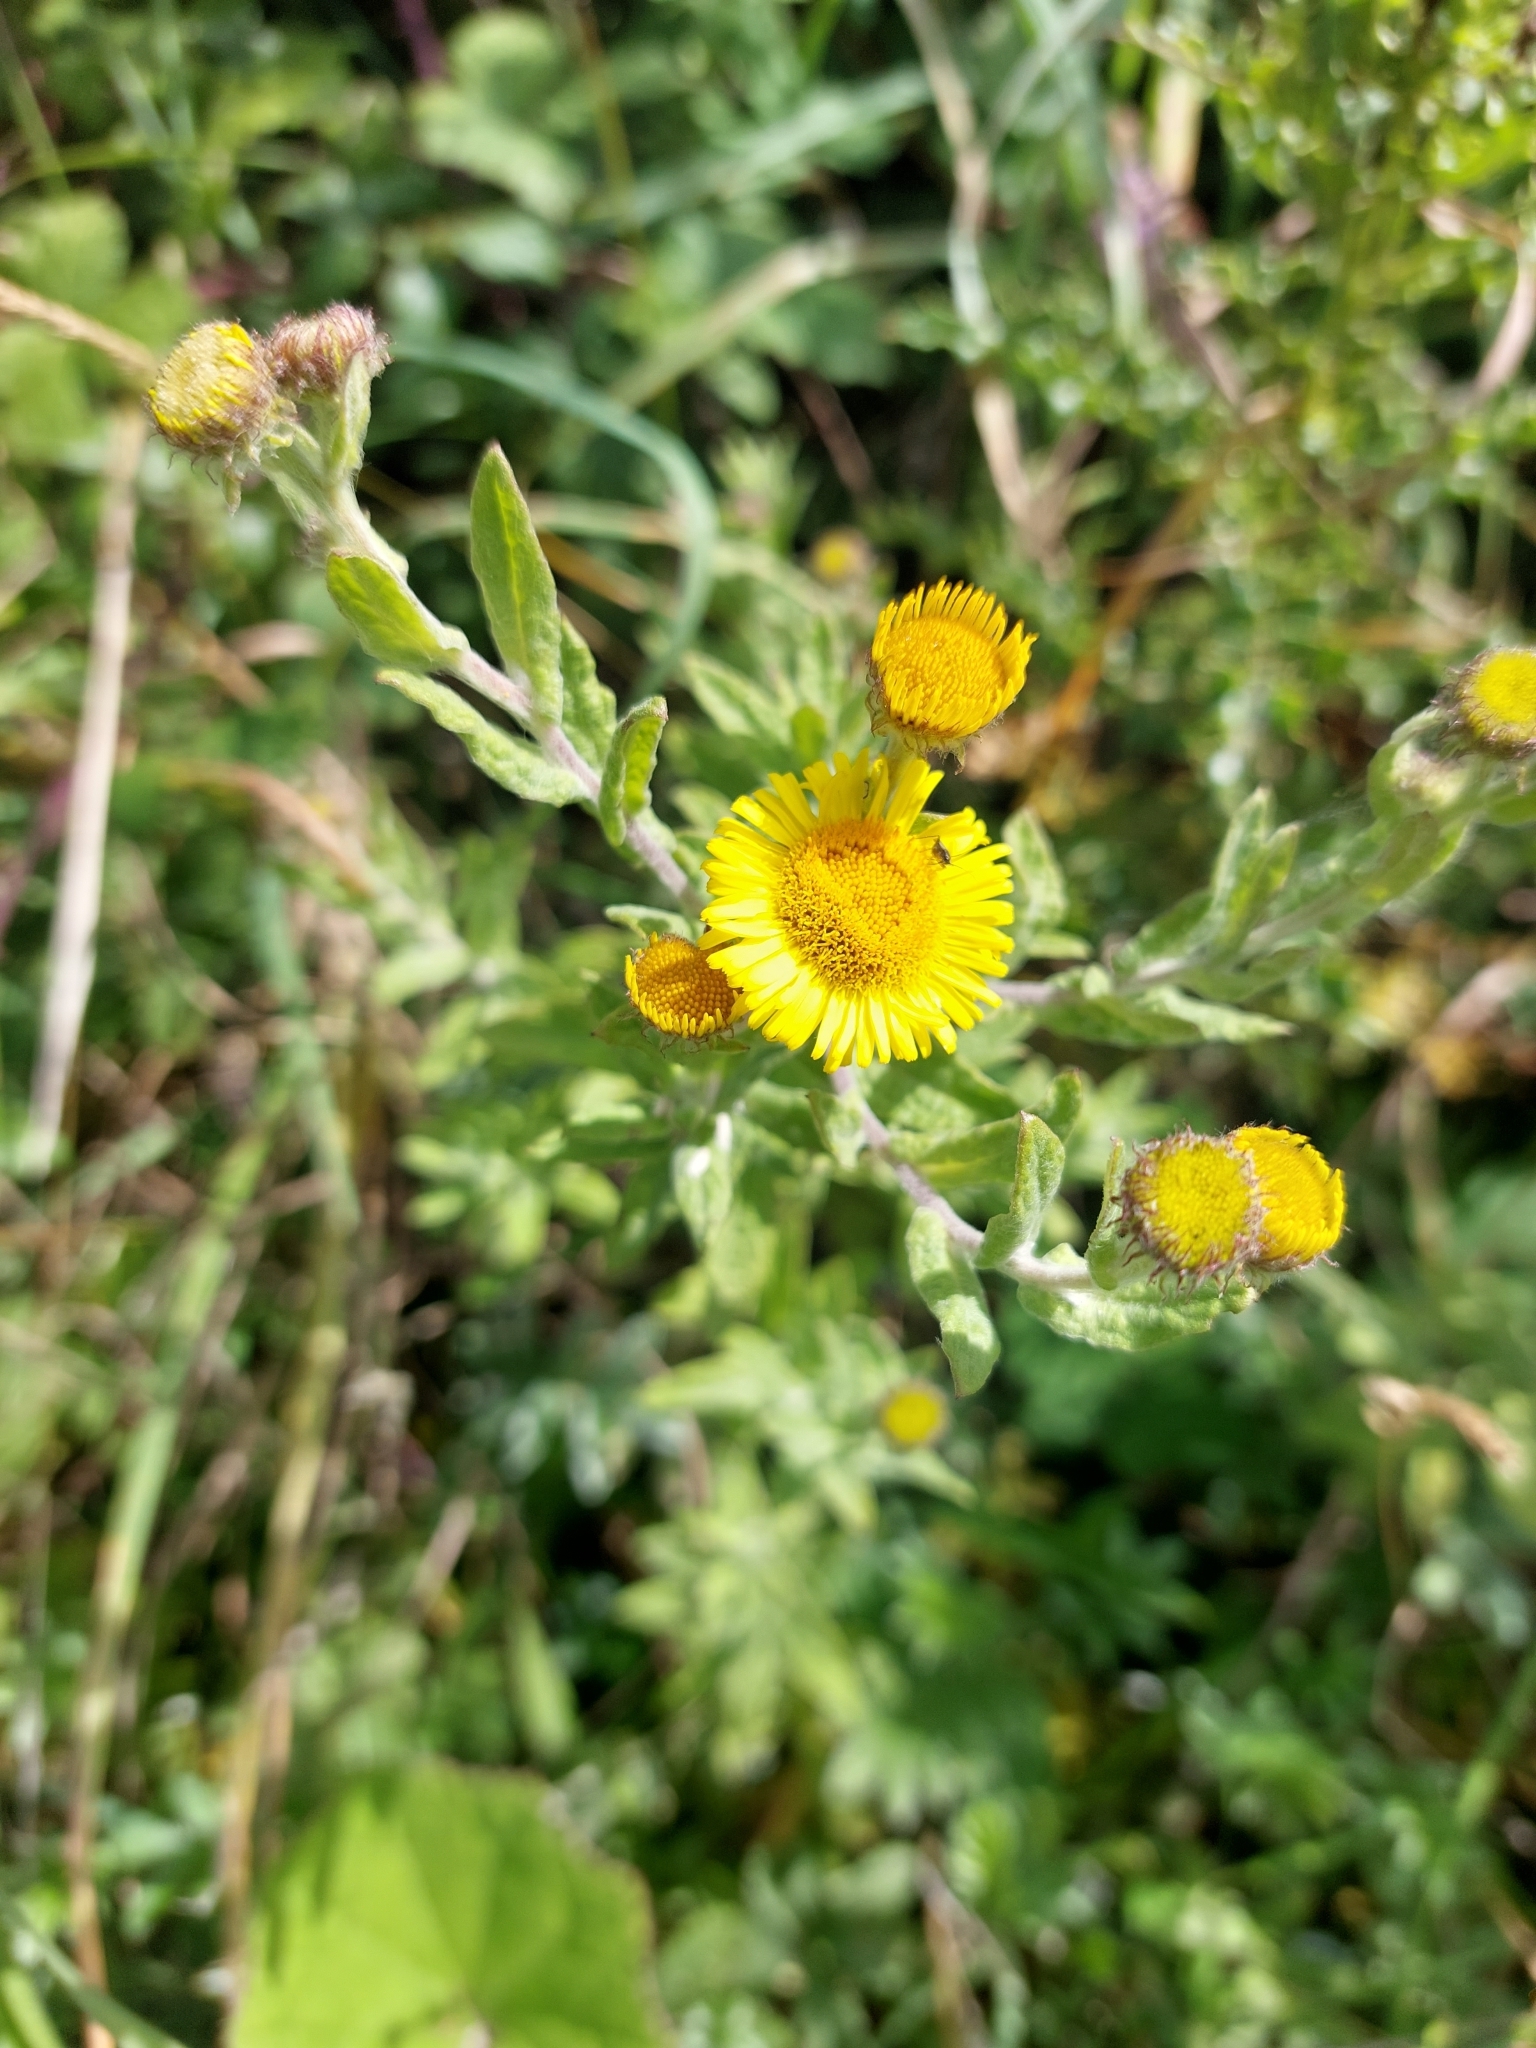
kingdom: Plantae
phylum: Tracheophyta
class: Magnoliopsida
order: Asterales
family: Asteraceae
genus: Pulicaria
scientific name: Pulicaria dysenterica
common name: Common fleabane
